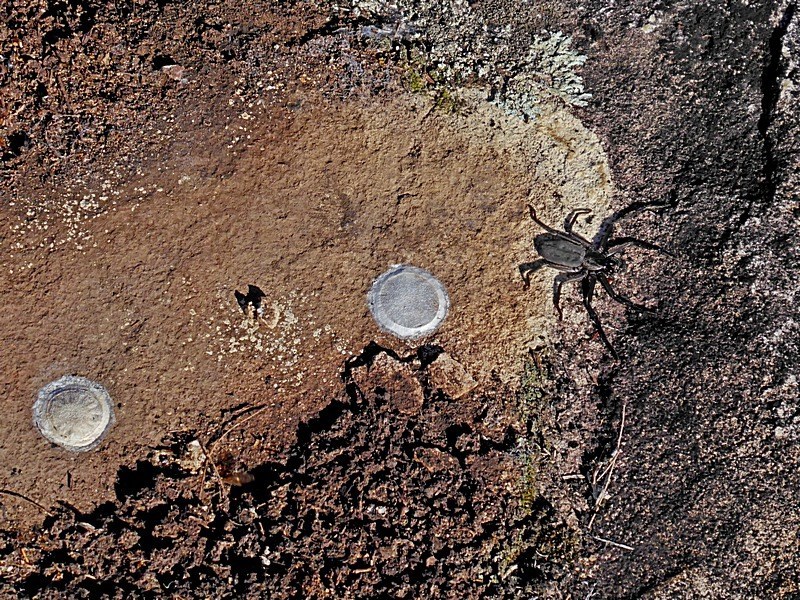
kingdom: Animalia
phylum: Arthropoda
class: Arachnida
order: Araneae
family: Trachycosmidae
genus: Morebilus
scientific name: Morebilus plagusius
